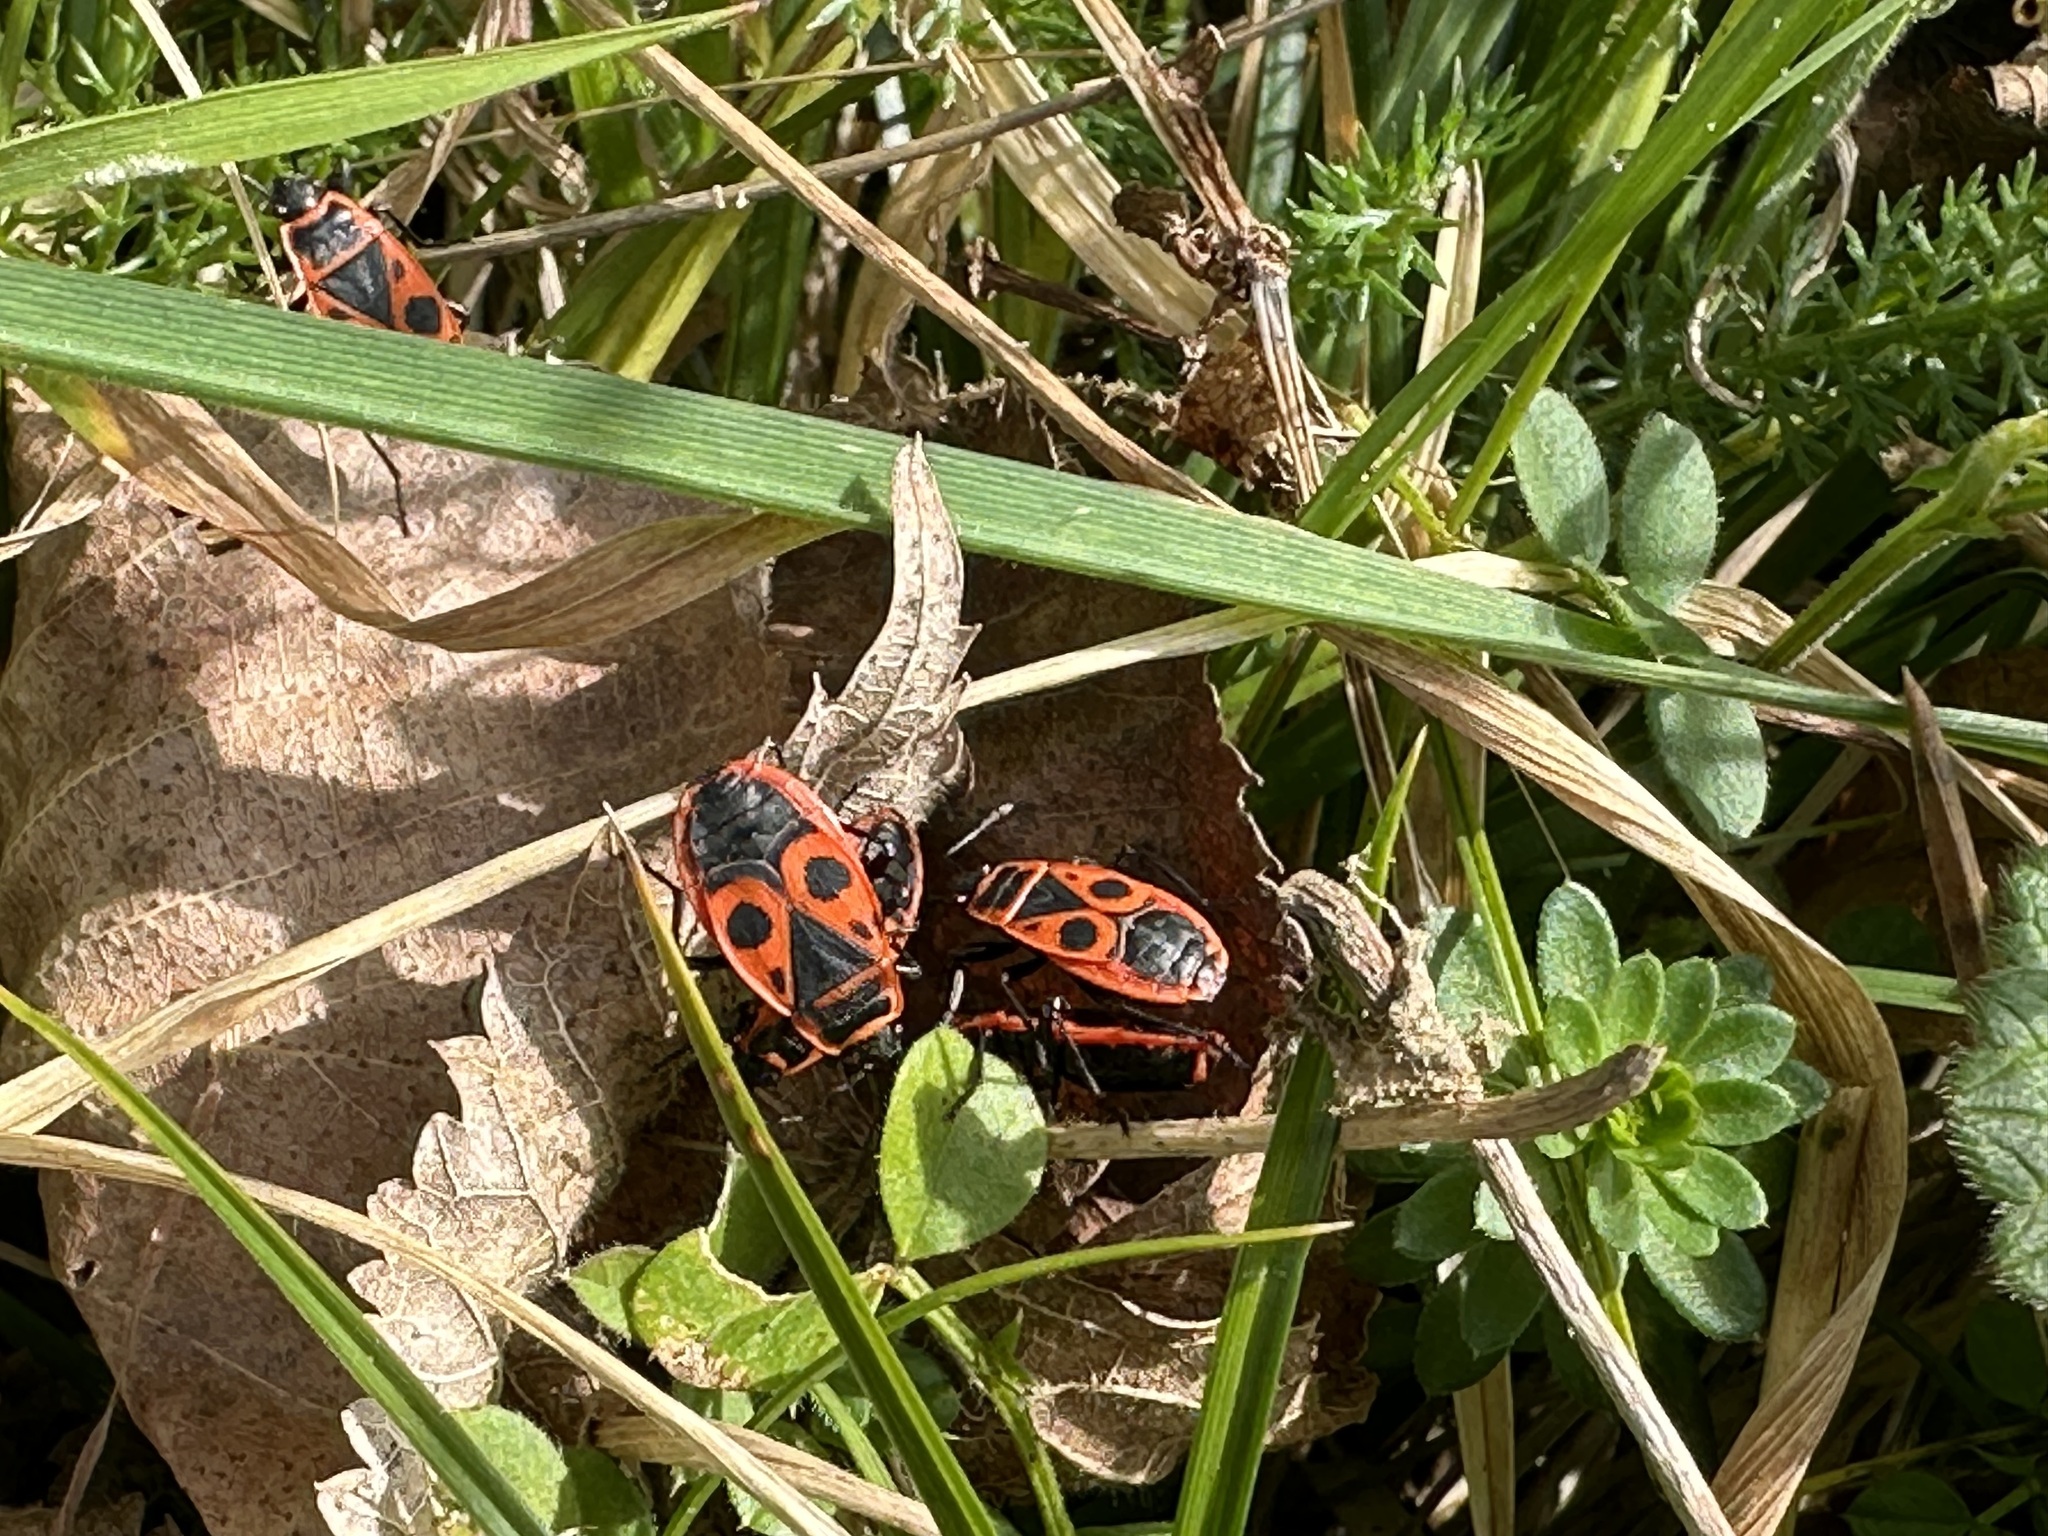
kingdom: Animalia
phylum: Arthropoda
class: Insecta
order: Hemiptera
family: Pyrrhocoridae
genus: Pyrrhocoris
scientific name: Pyrrhocoris apterus
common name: Firebug
